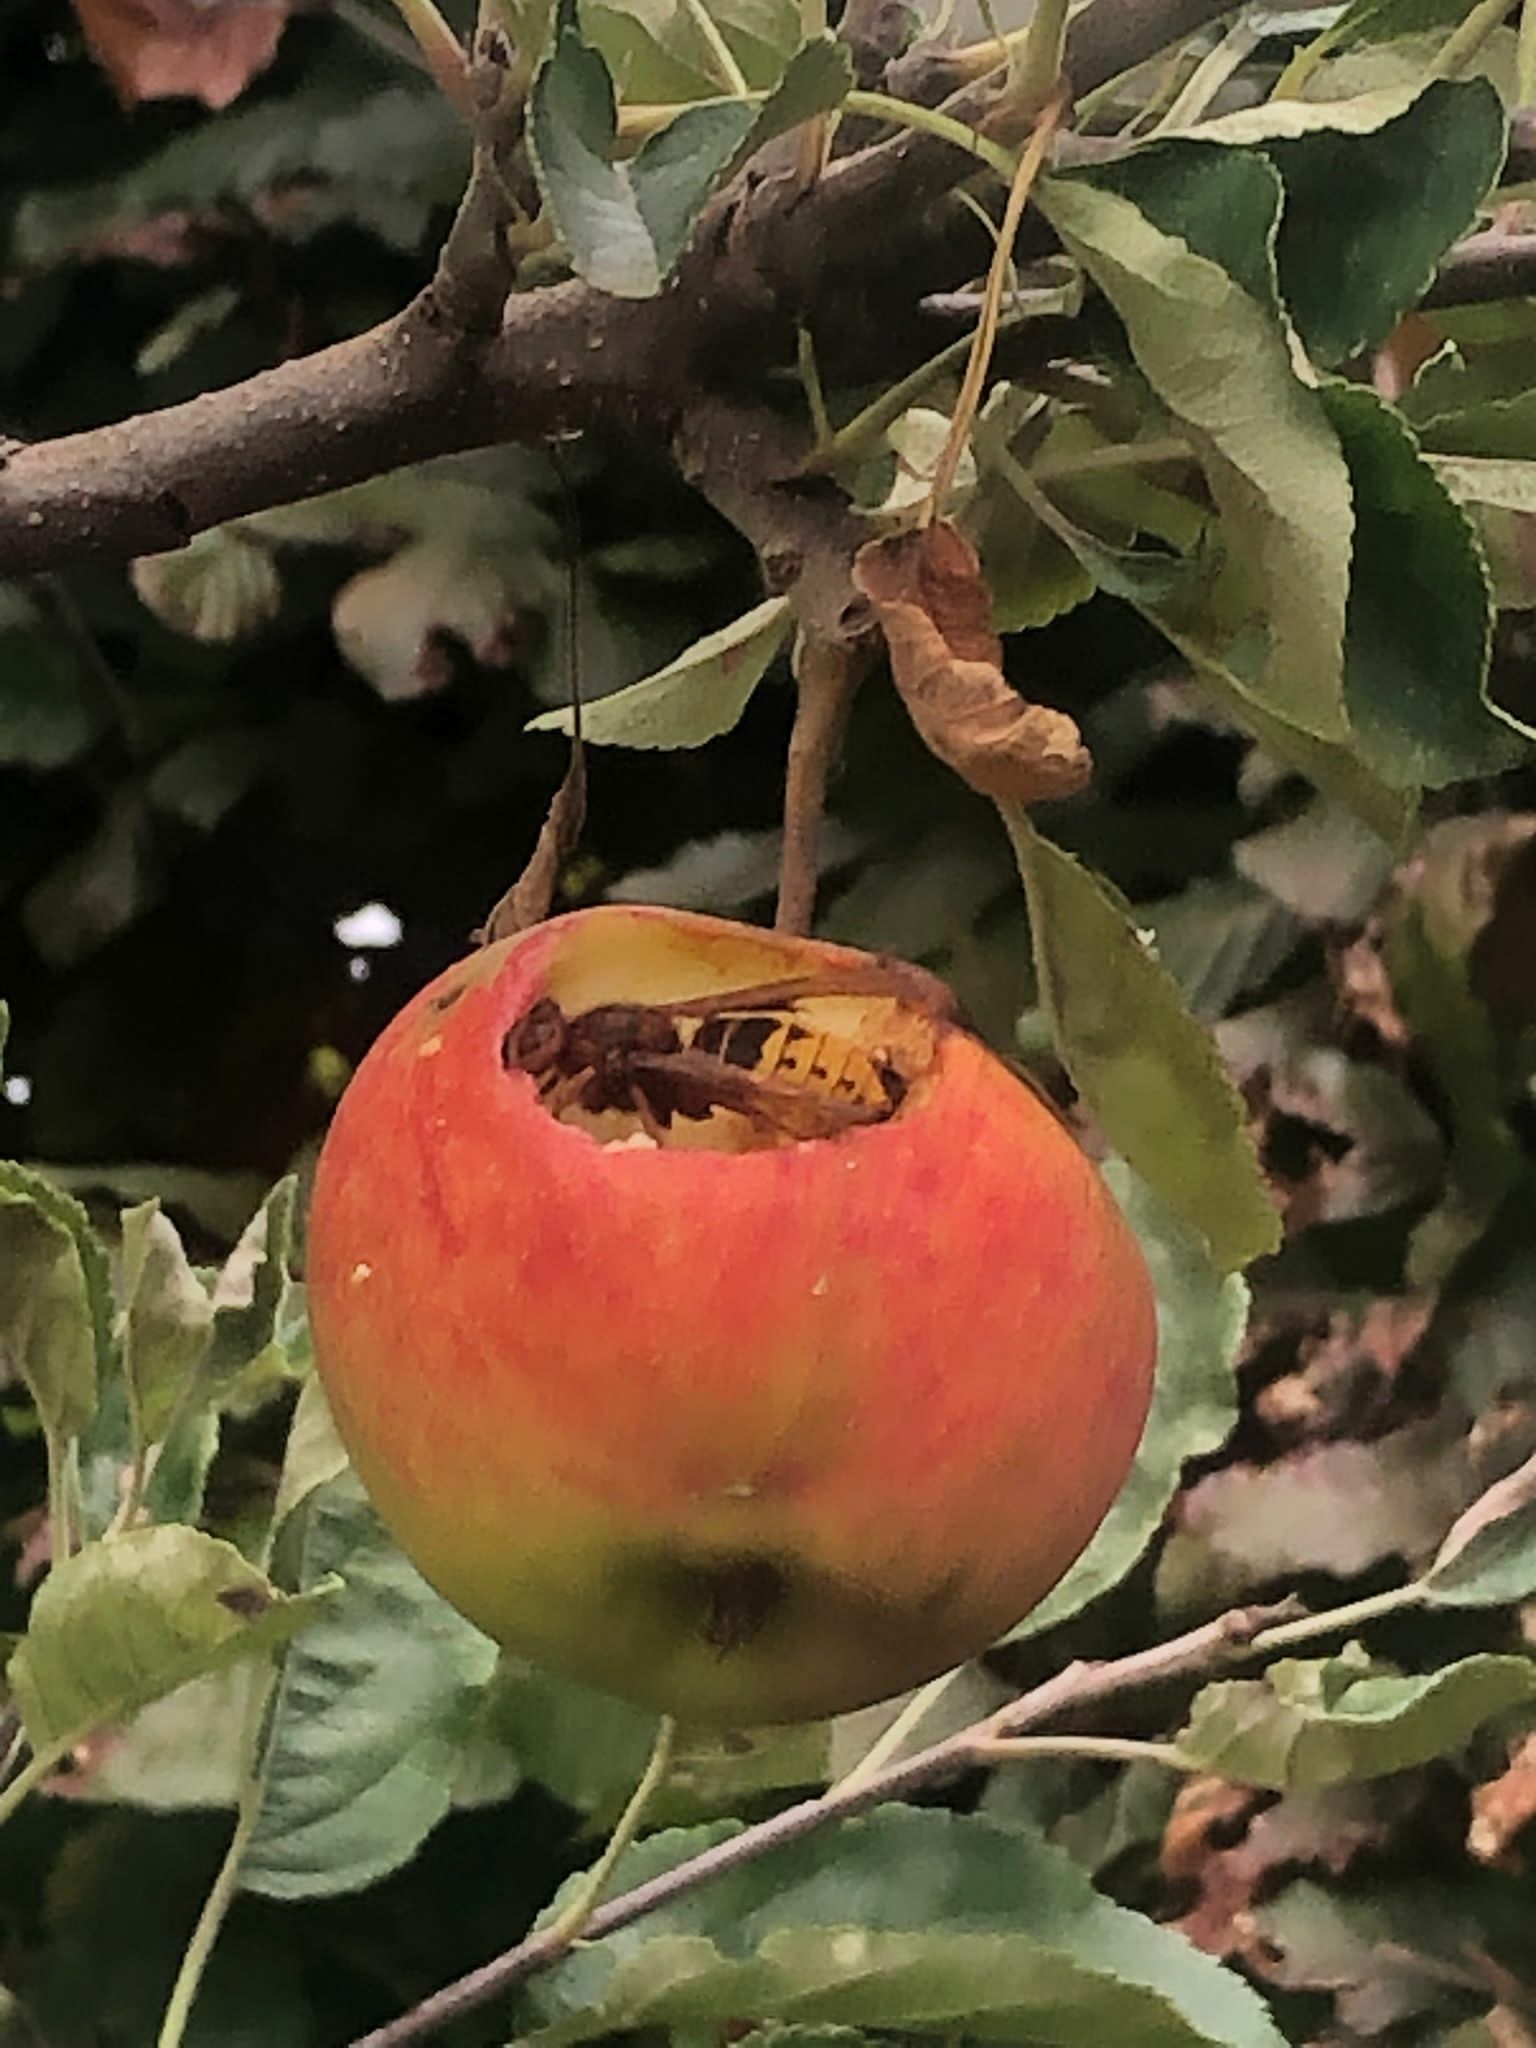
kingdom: Animalia
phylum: Arthropoda
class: Insecta
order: Hymenoptera
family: Vespidae
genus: Vespa
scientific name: Vespa crabro
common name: Hornet
